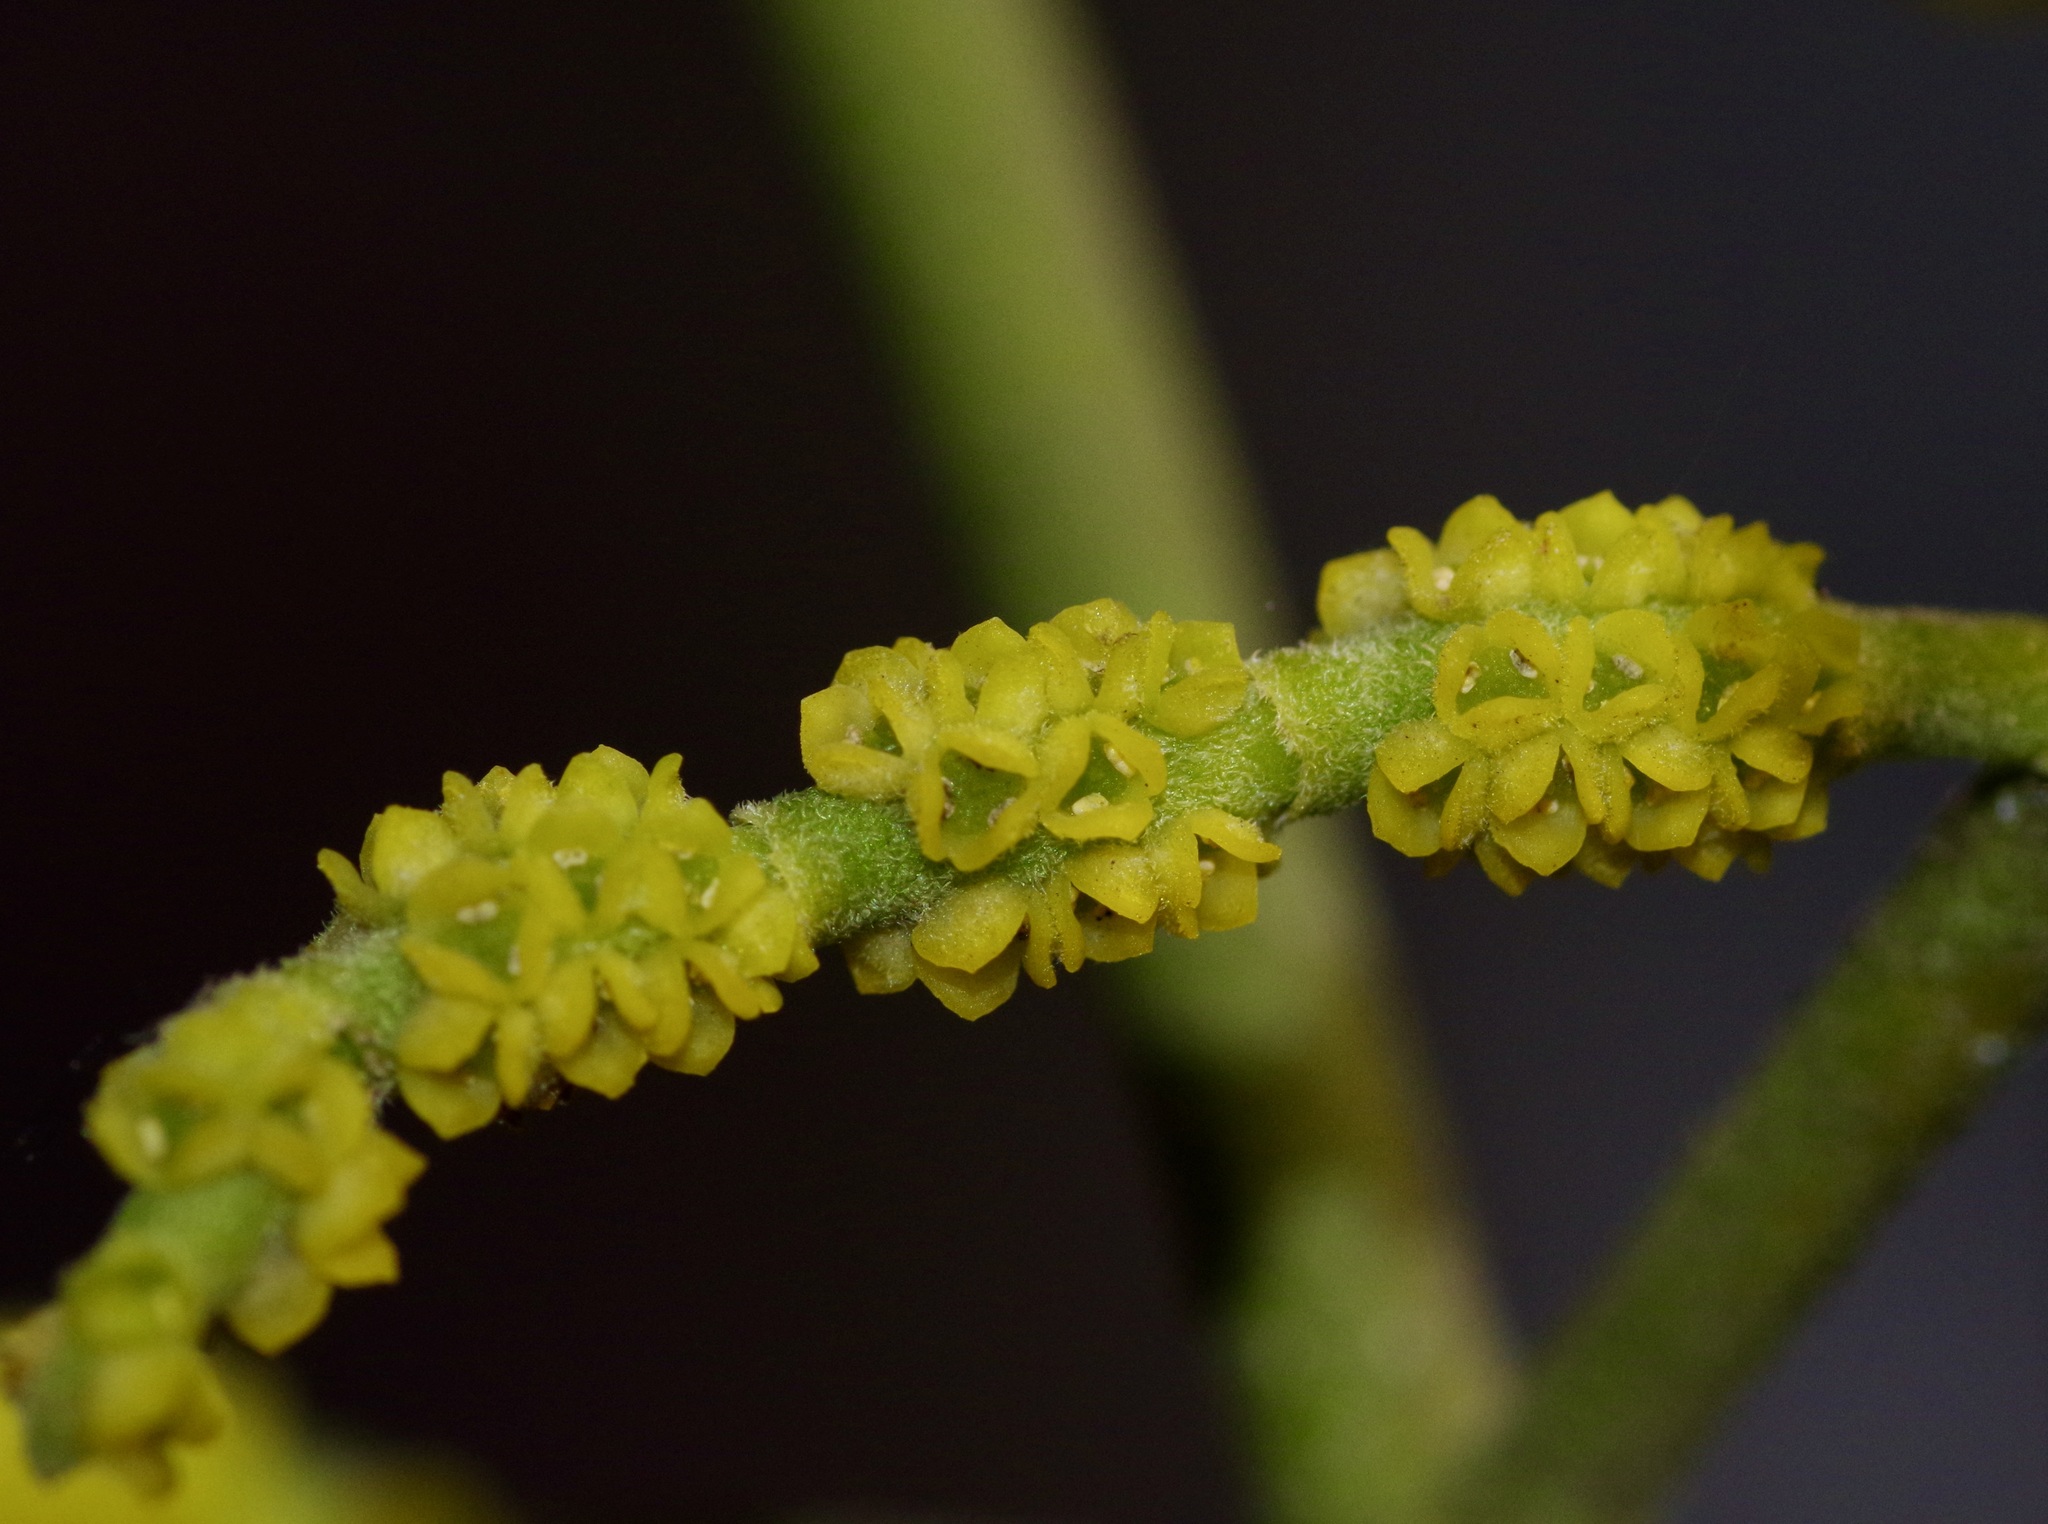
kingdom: Plantae
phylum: Tracheophyta
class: Magnoliopsida
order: Santalales
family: Viscaceae
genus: Phoradendron
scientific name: Phoradendron leucarpum
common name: Pacific mistletoe
